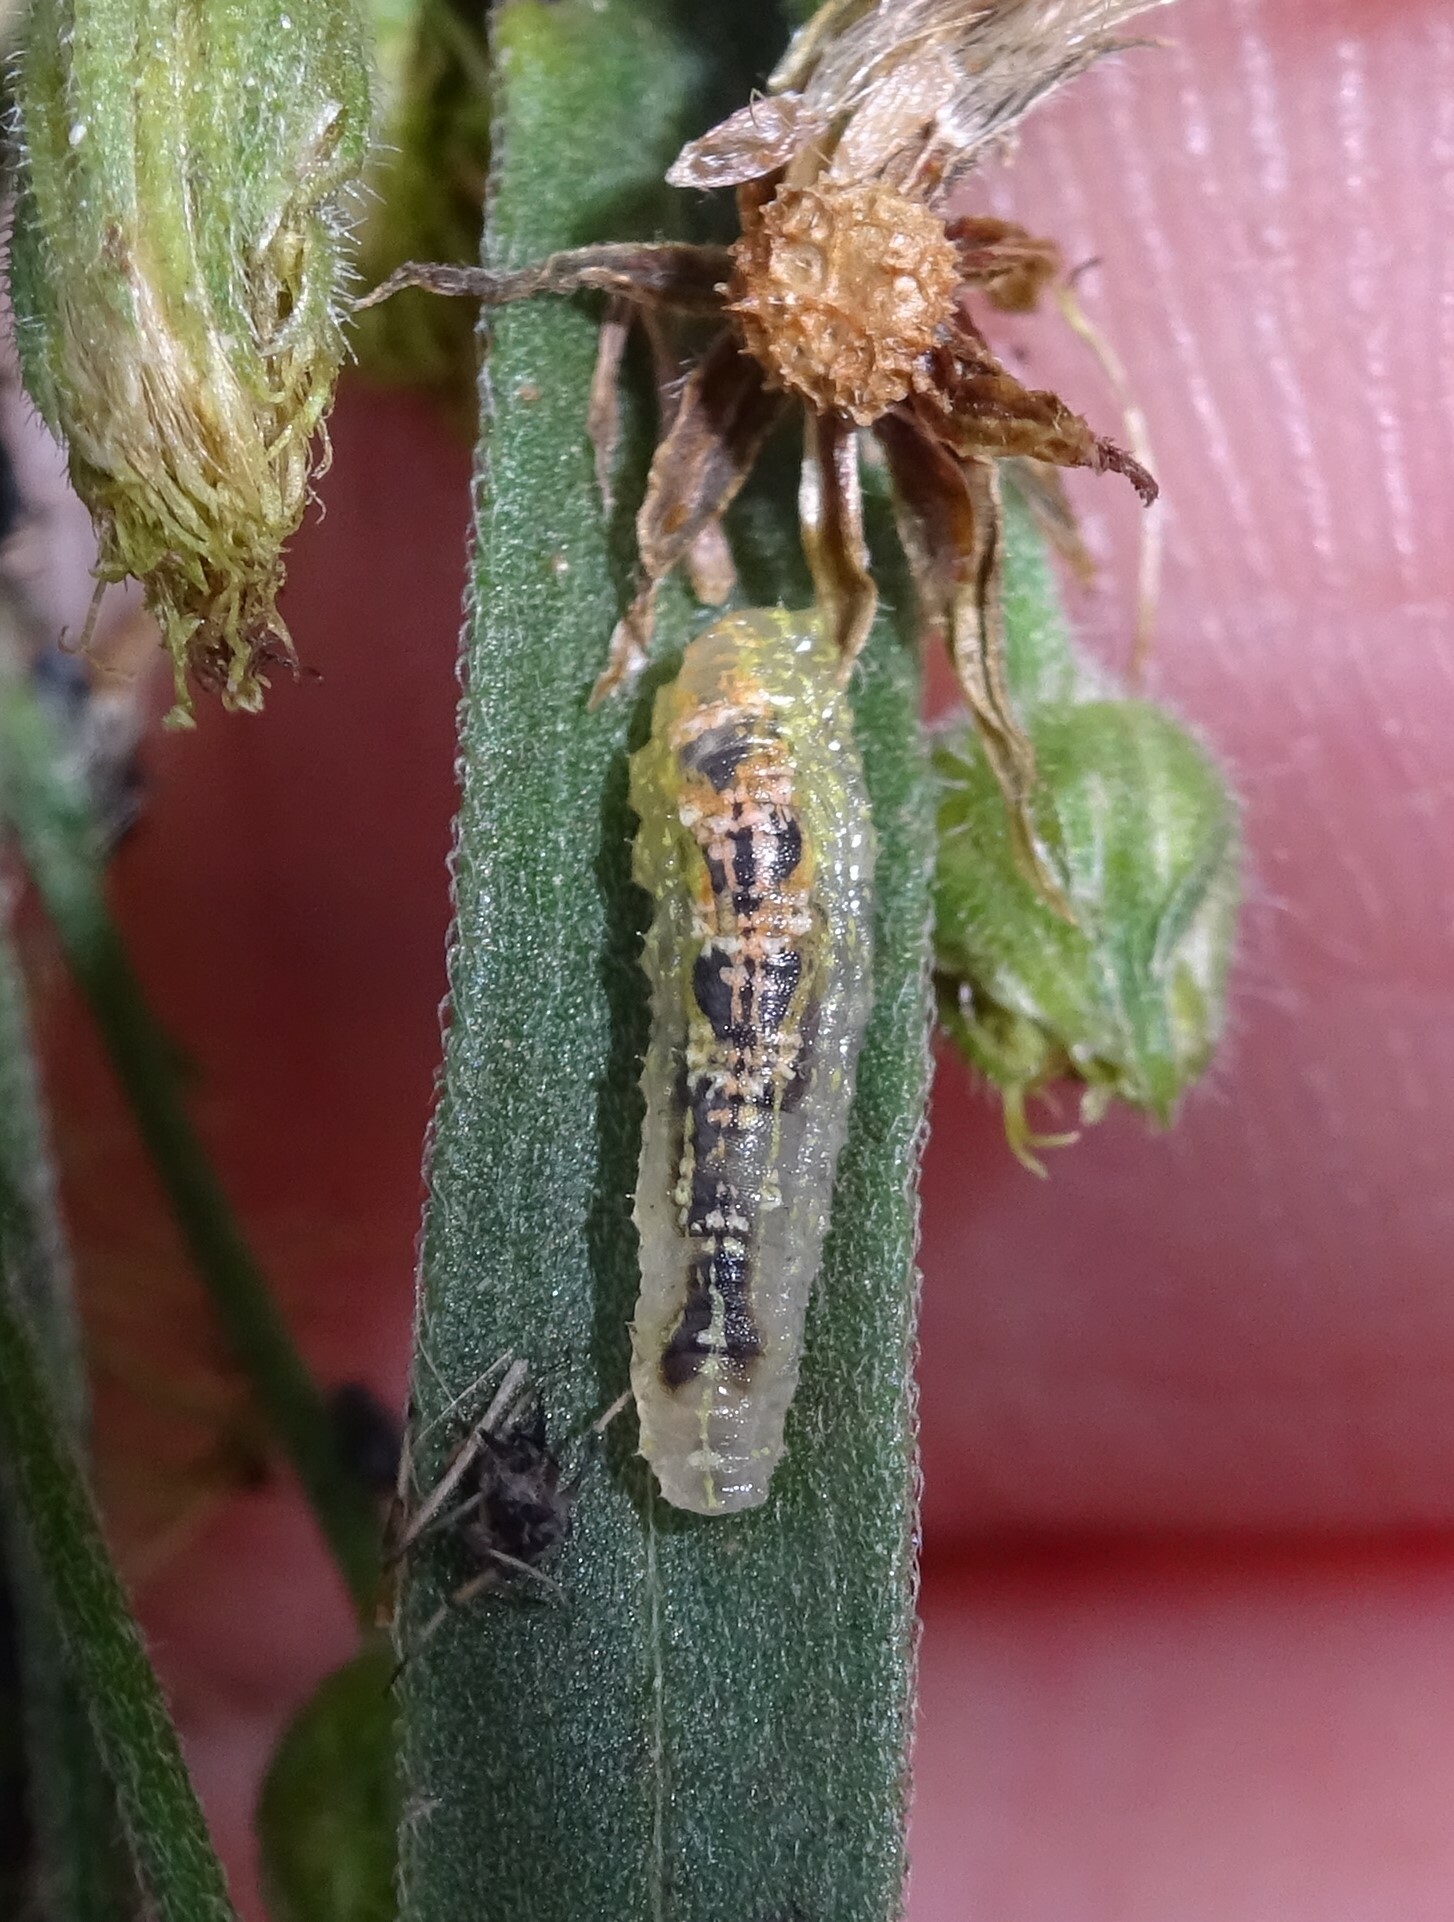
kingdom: Animalia
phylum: Arthropoda
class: Insecta
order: Diptera
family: Syrphidae
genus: Syrphus
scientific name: Syrphus
